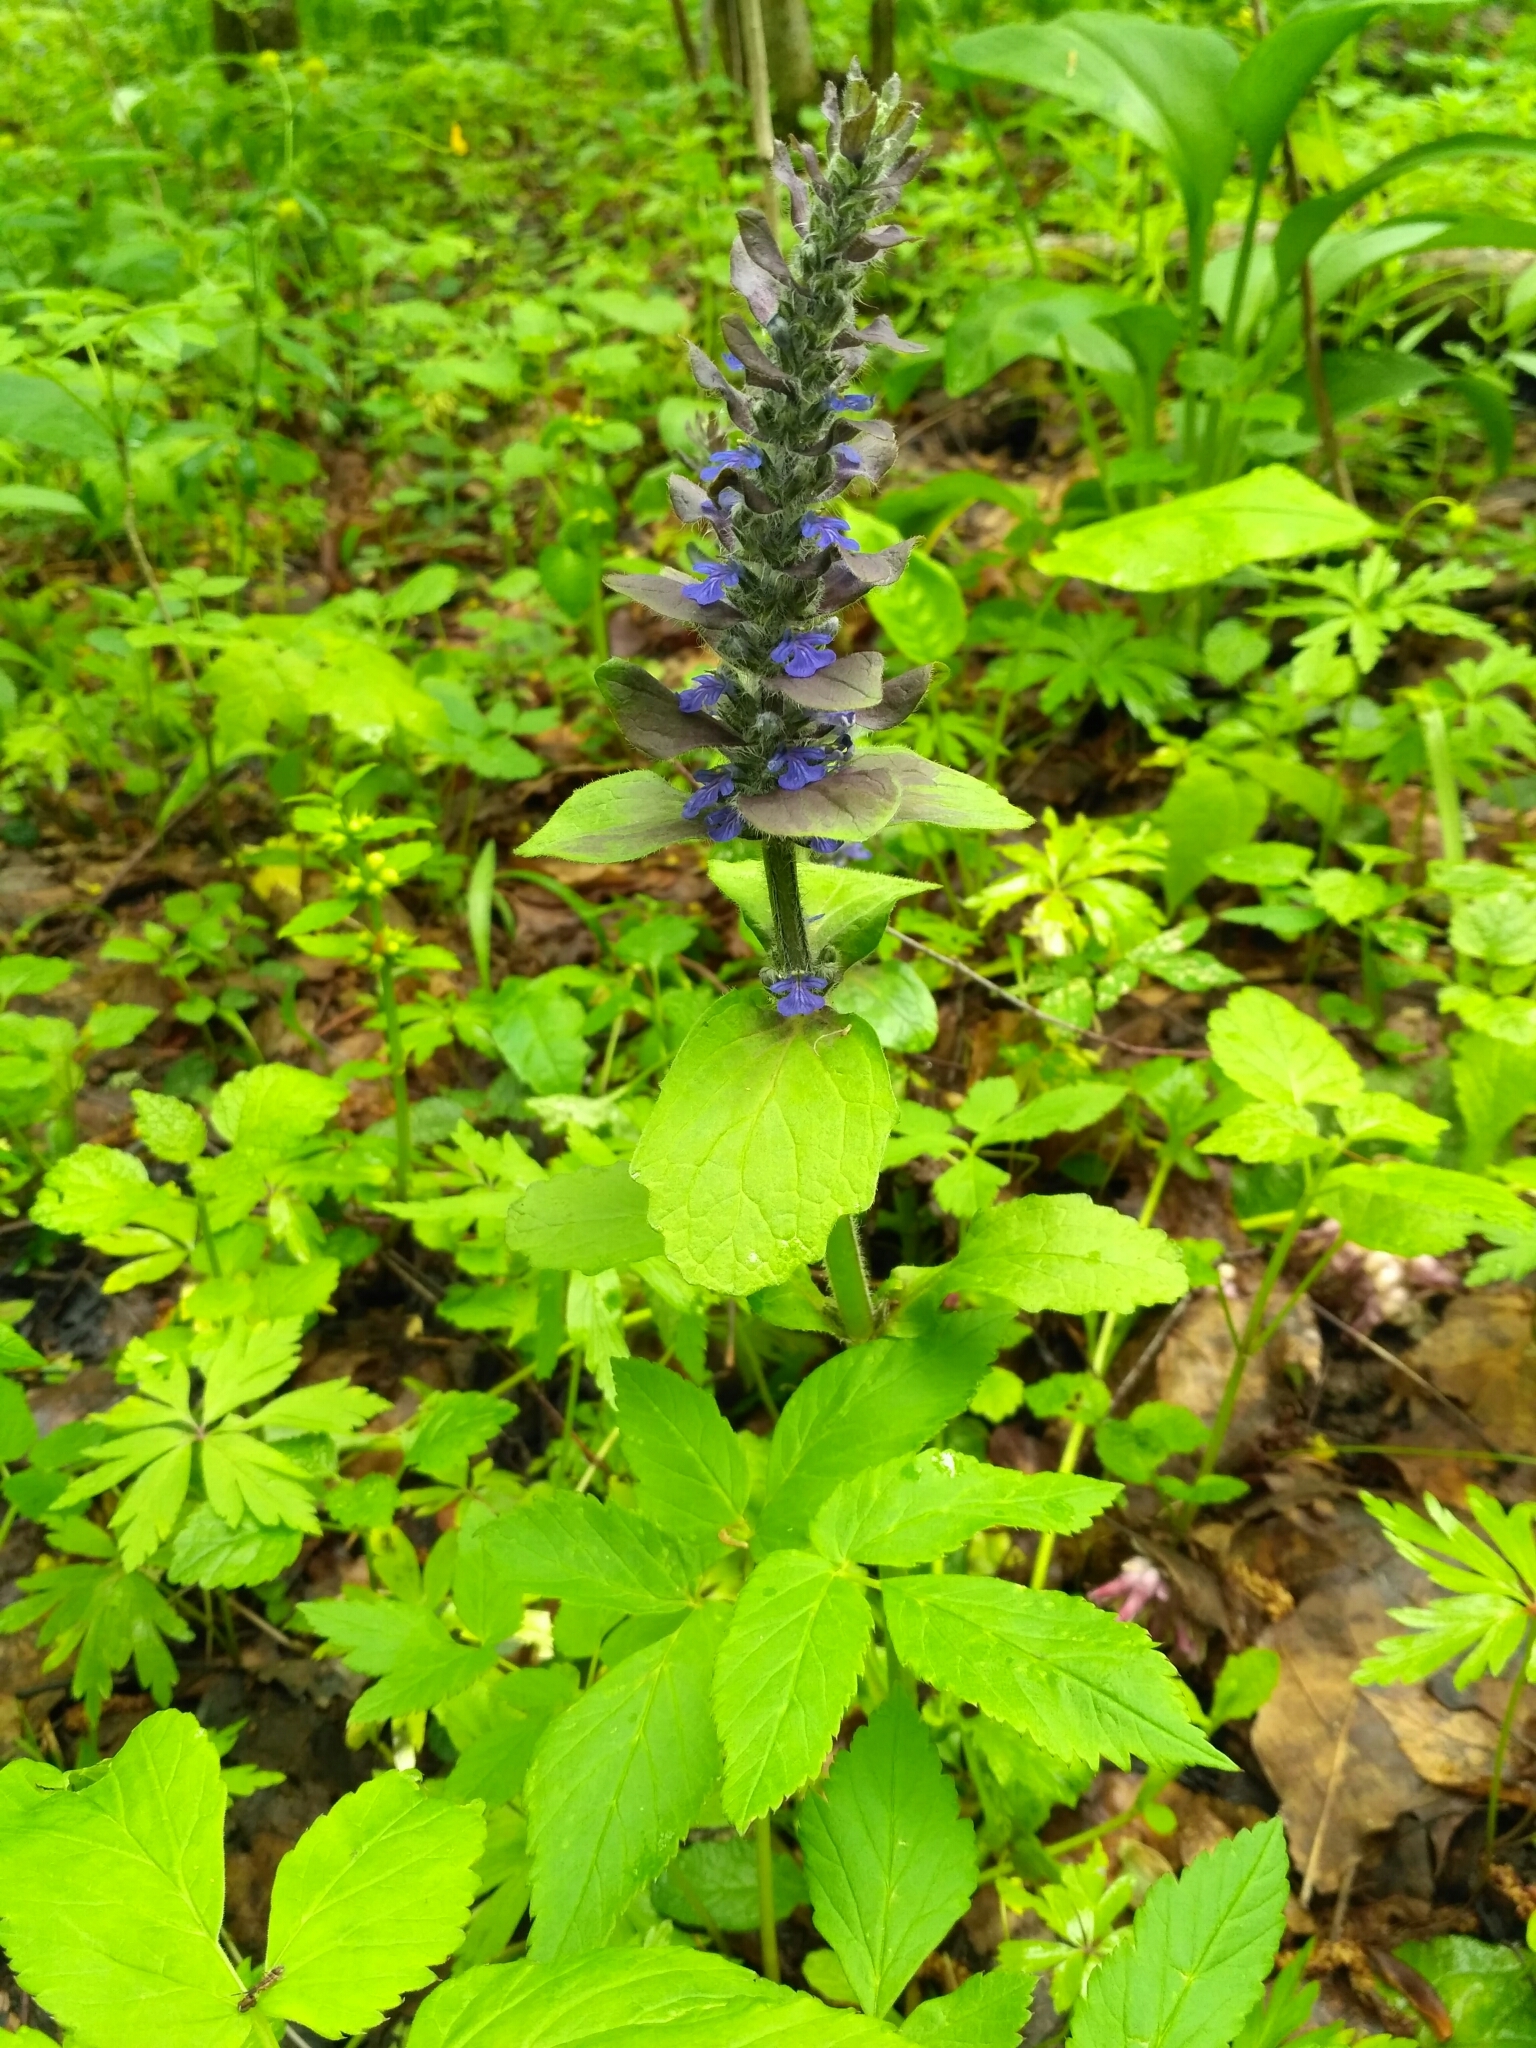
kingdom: Plantae
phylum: Tracheophyta
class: Magnoliopsida
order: Lamiales
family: Lamiaceae
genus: Ajuga
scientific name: Ajuga reptans
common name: Bugle
